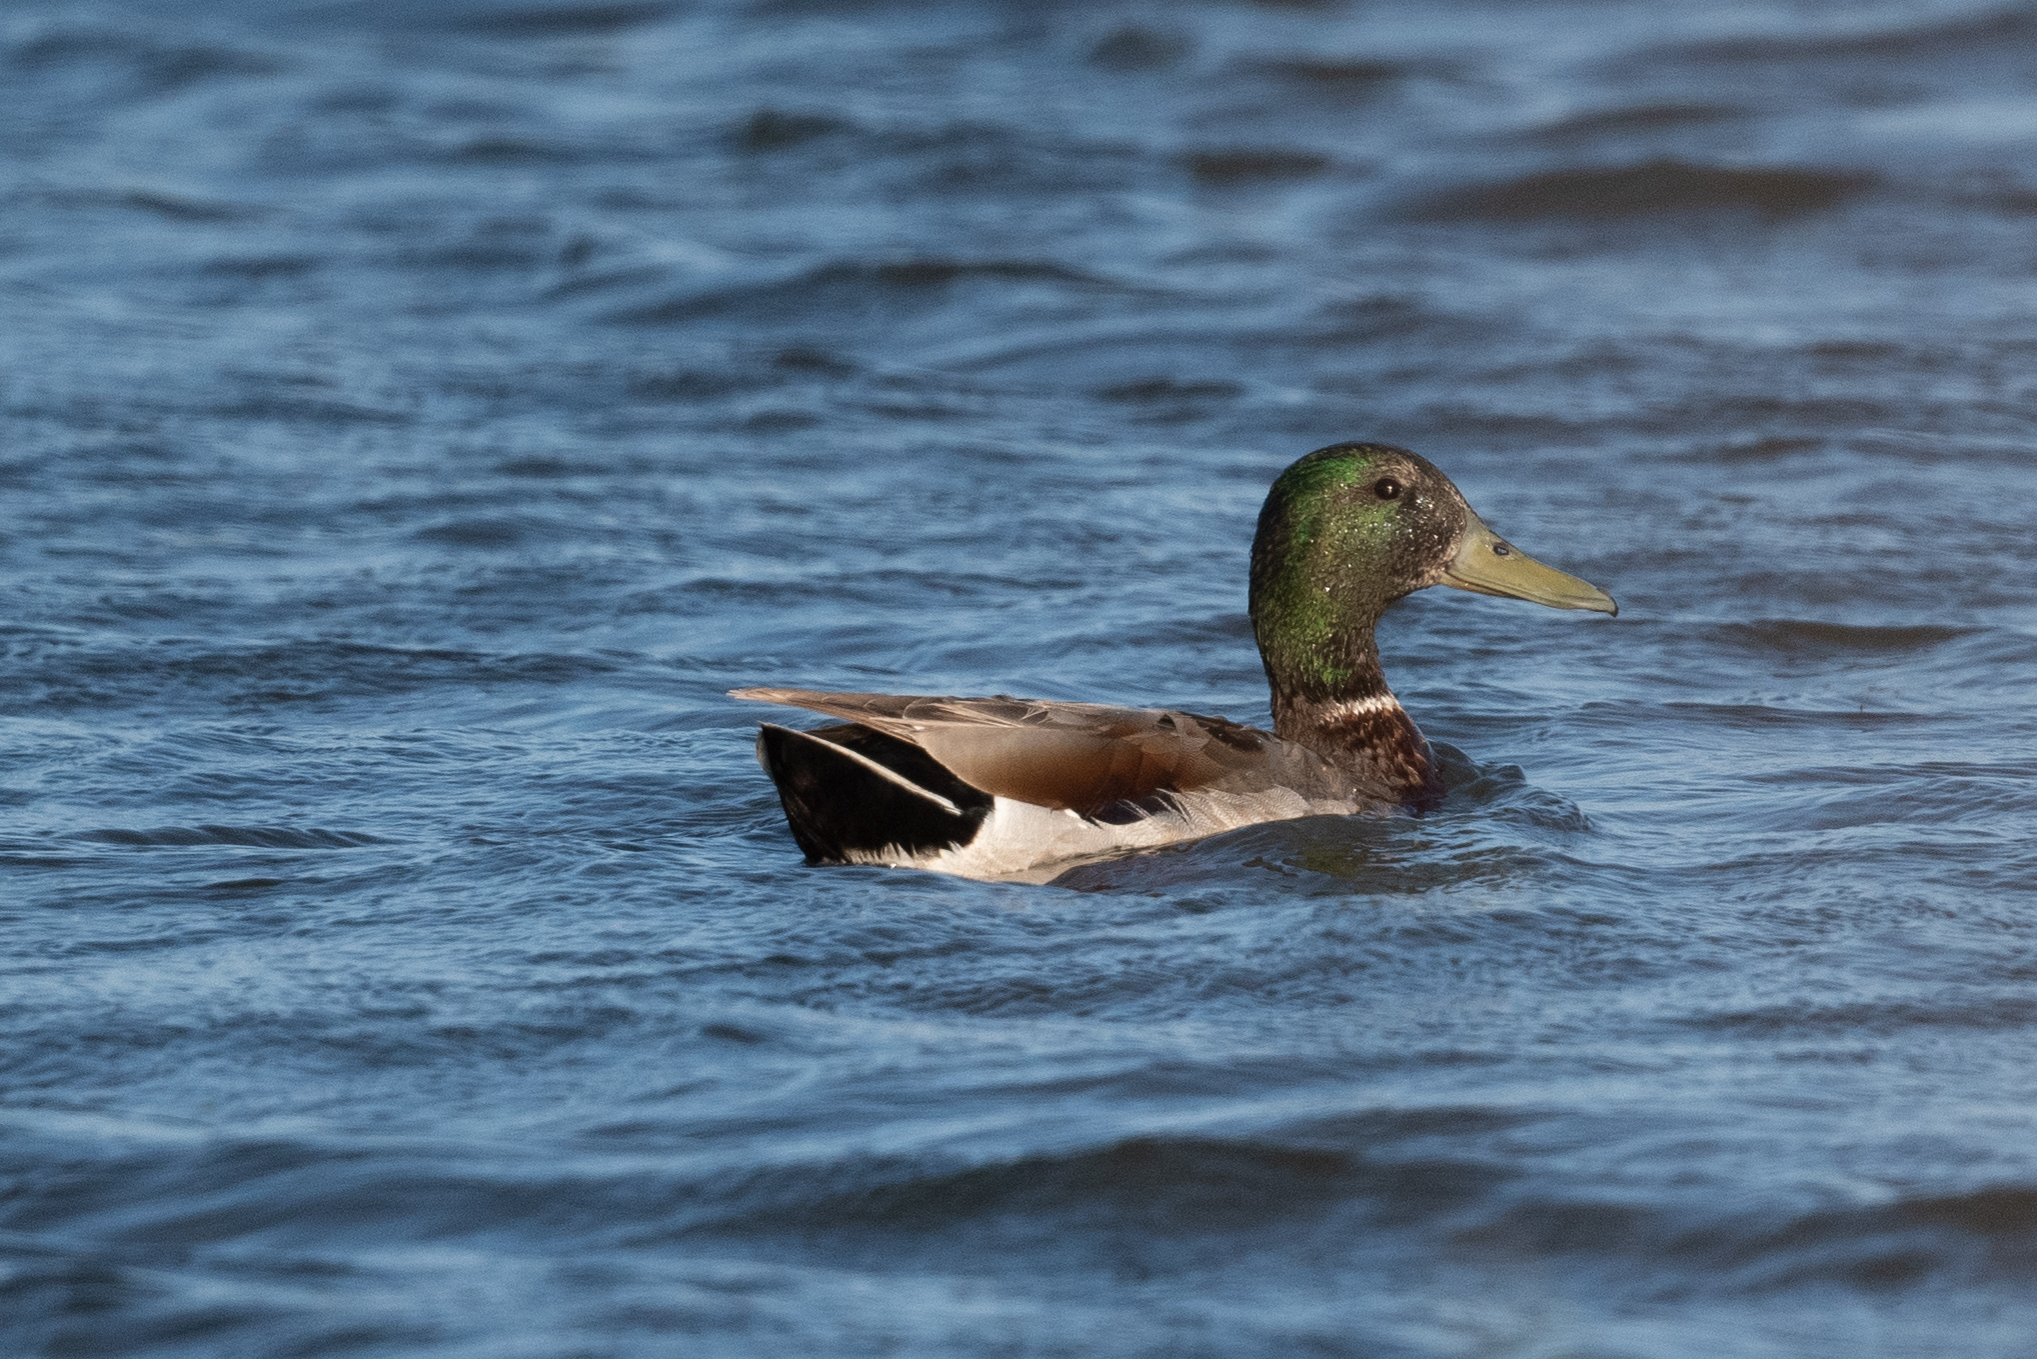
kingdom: Animalia
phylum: Chordata
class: Aves
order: Anseriformes
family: Anatidae
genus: Anas
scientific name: Anas platyrhynchos
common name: Mallard
